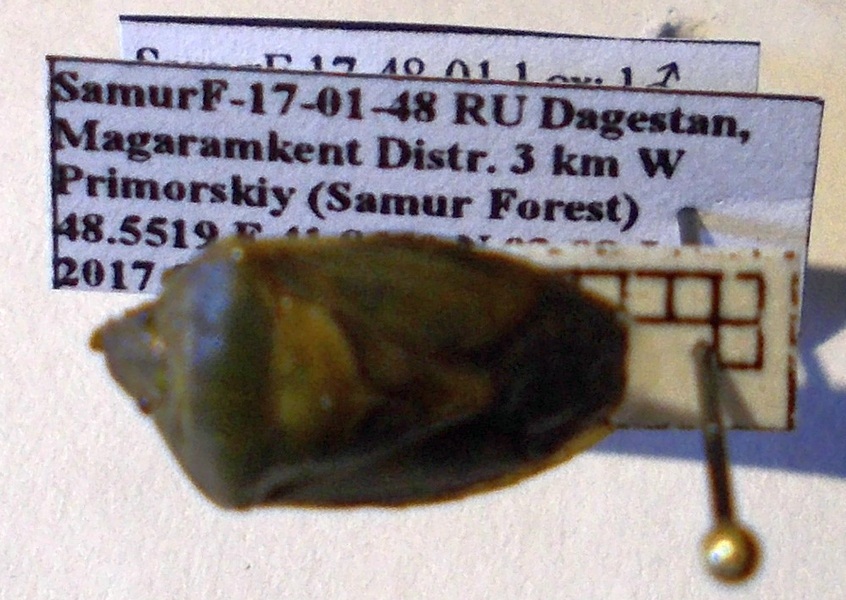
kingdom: Animalia
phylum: Arthropoda
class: Insecta
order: Hemiptera
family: Pentatomidae
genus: Piezodorus
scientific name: Piezodorus lituratus
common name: Stink bug
